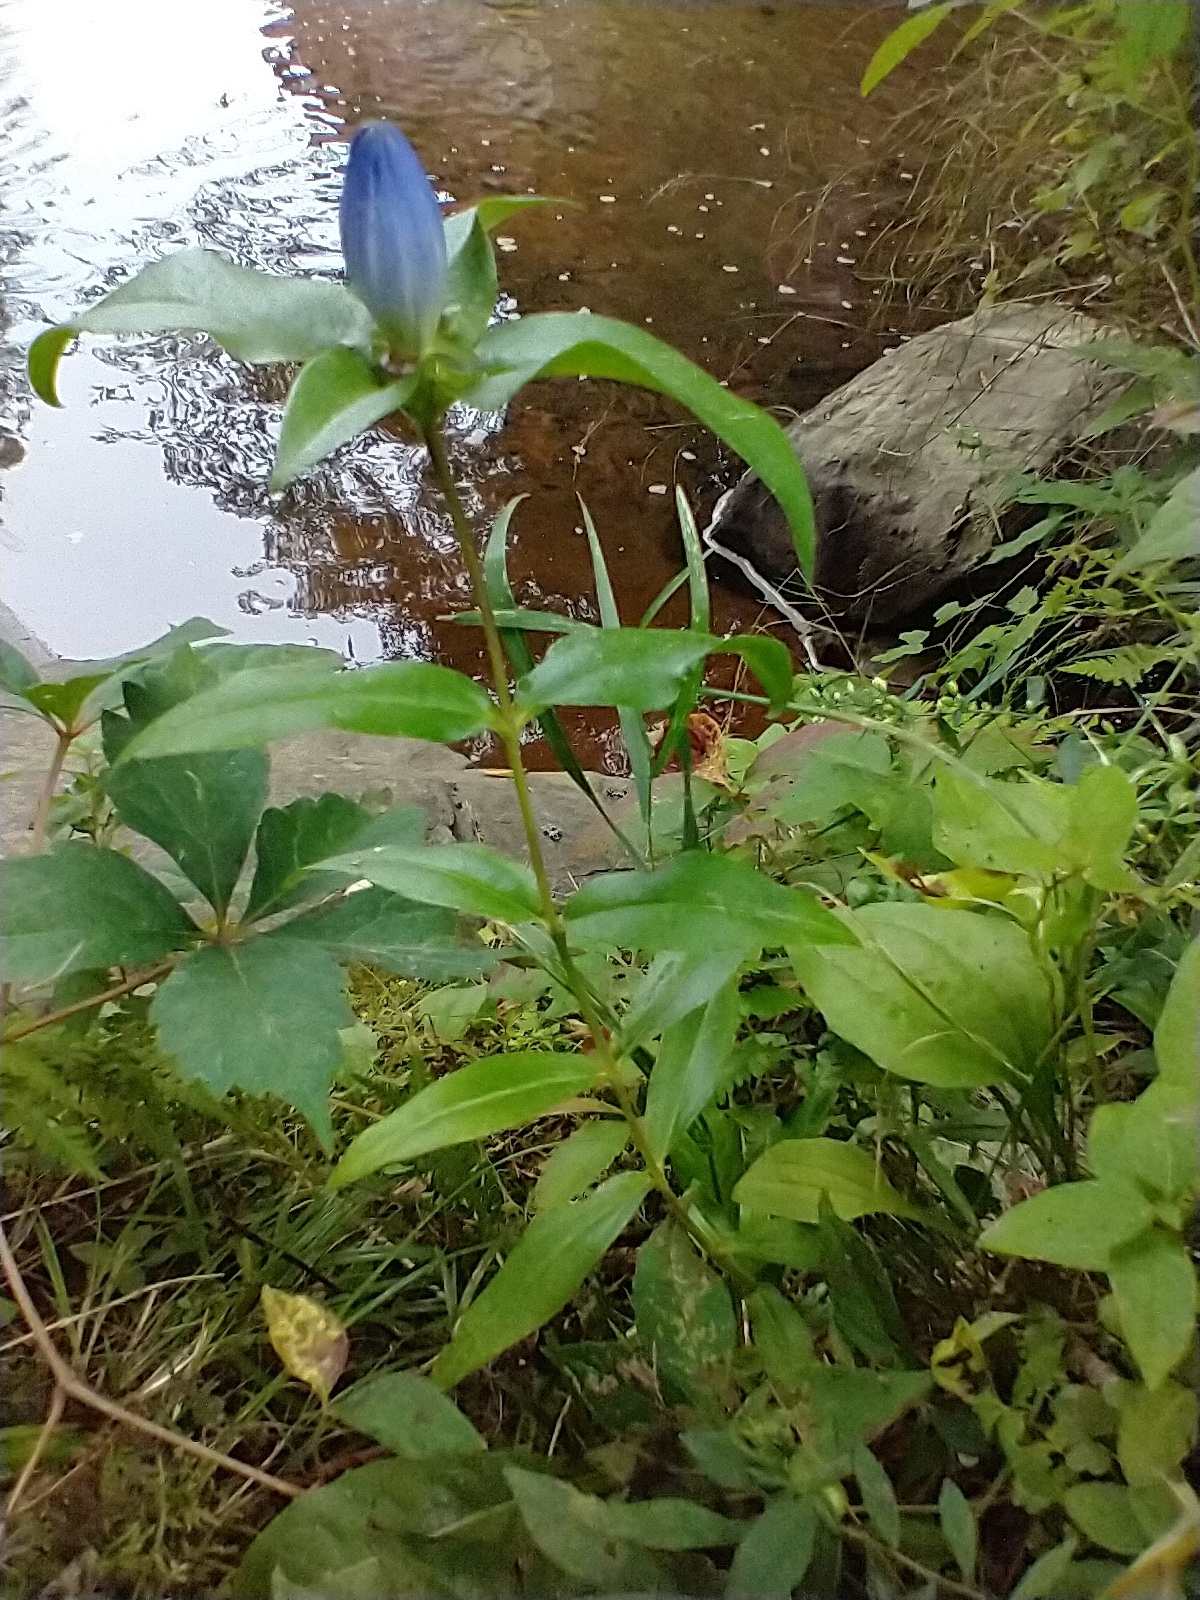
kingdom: Plantae
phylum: Tracheophyta
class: Magnoliopsida
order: Gentianales
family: Gentianaceae
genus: Gentiana
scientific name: Gentiana clausa
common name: Blind gentian
